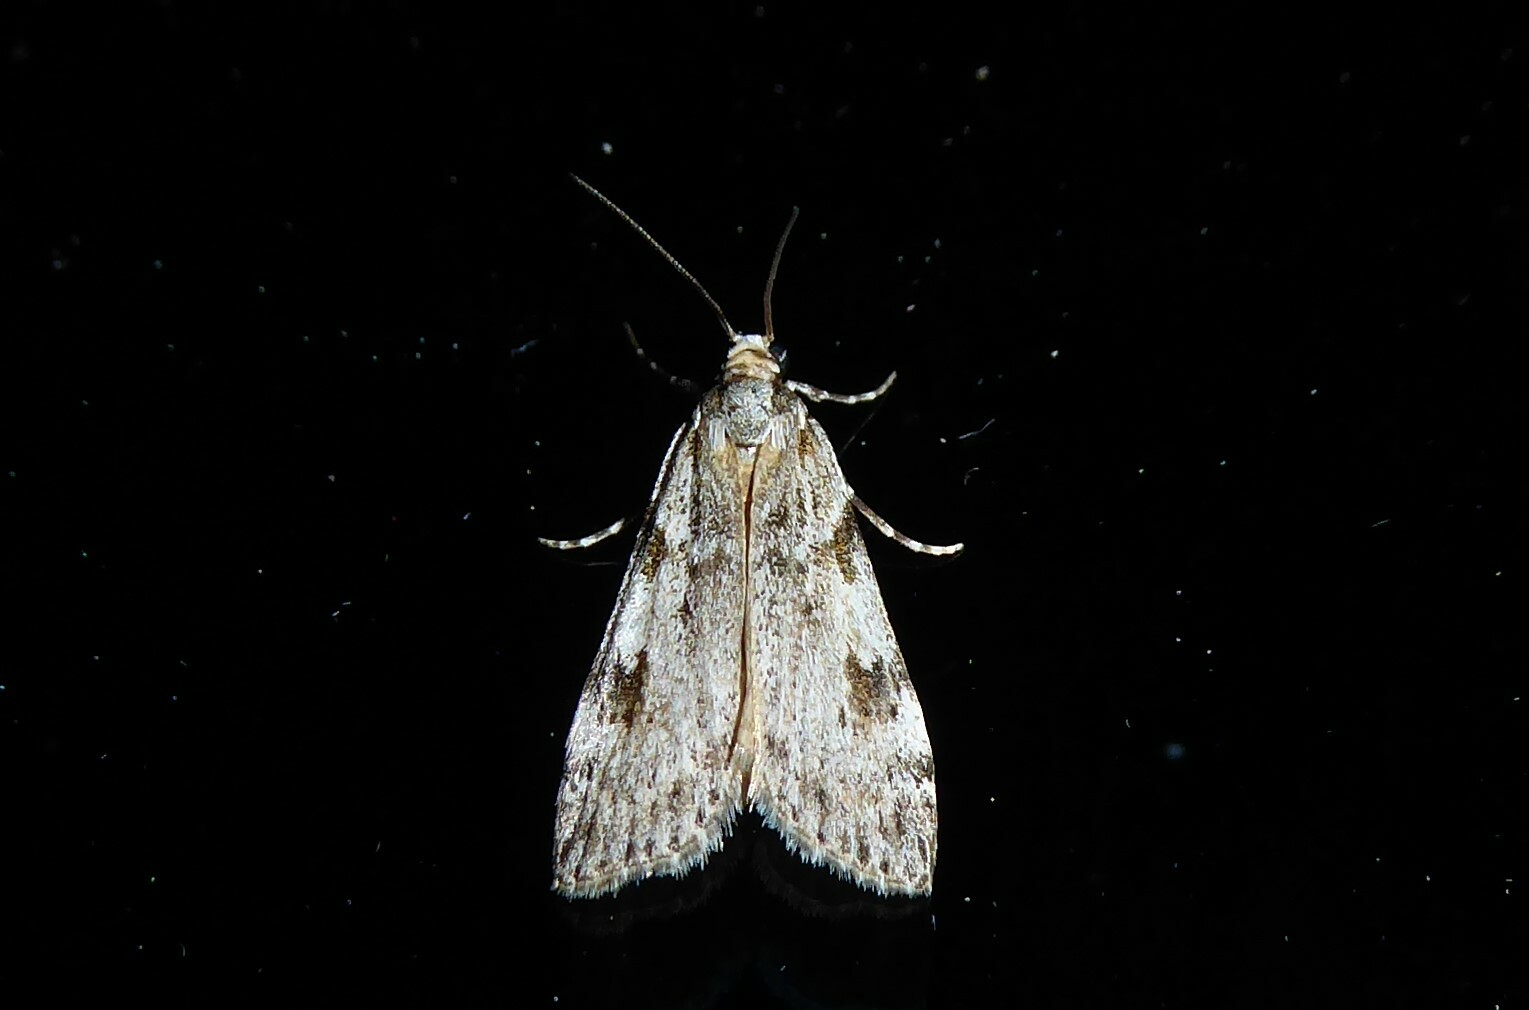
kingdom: Animalia
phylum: Arthropoda
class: Insecta
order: Lepidoptera
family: Crambidae
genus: Scoparia
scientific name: Scoparia halopis
